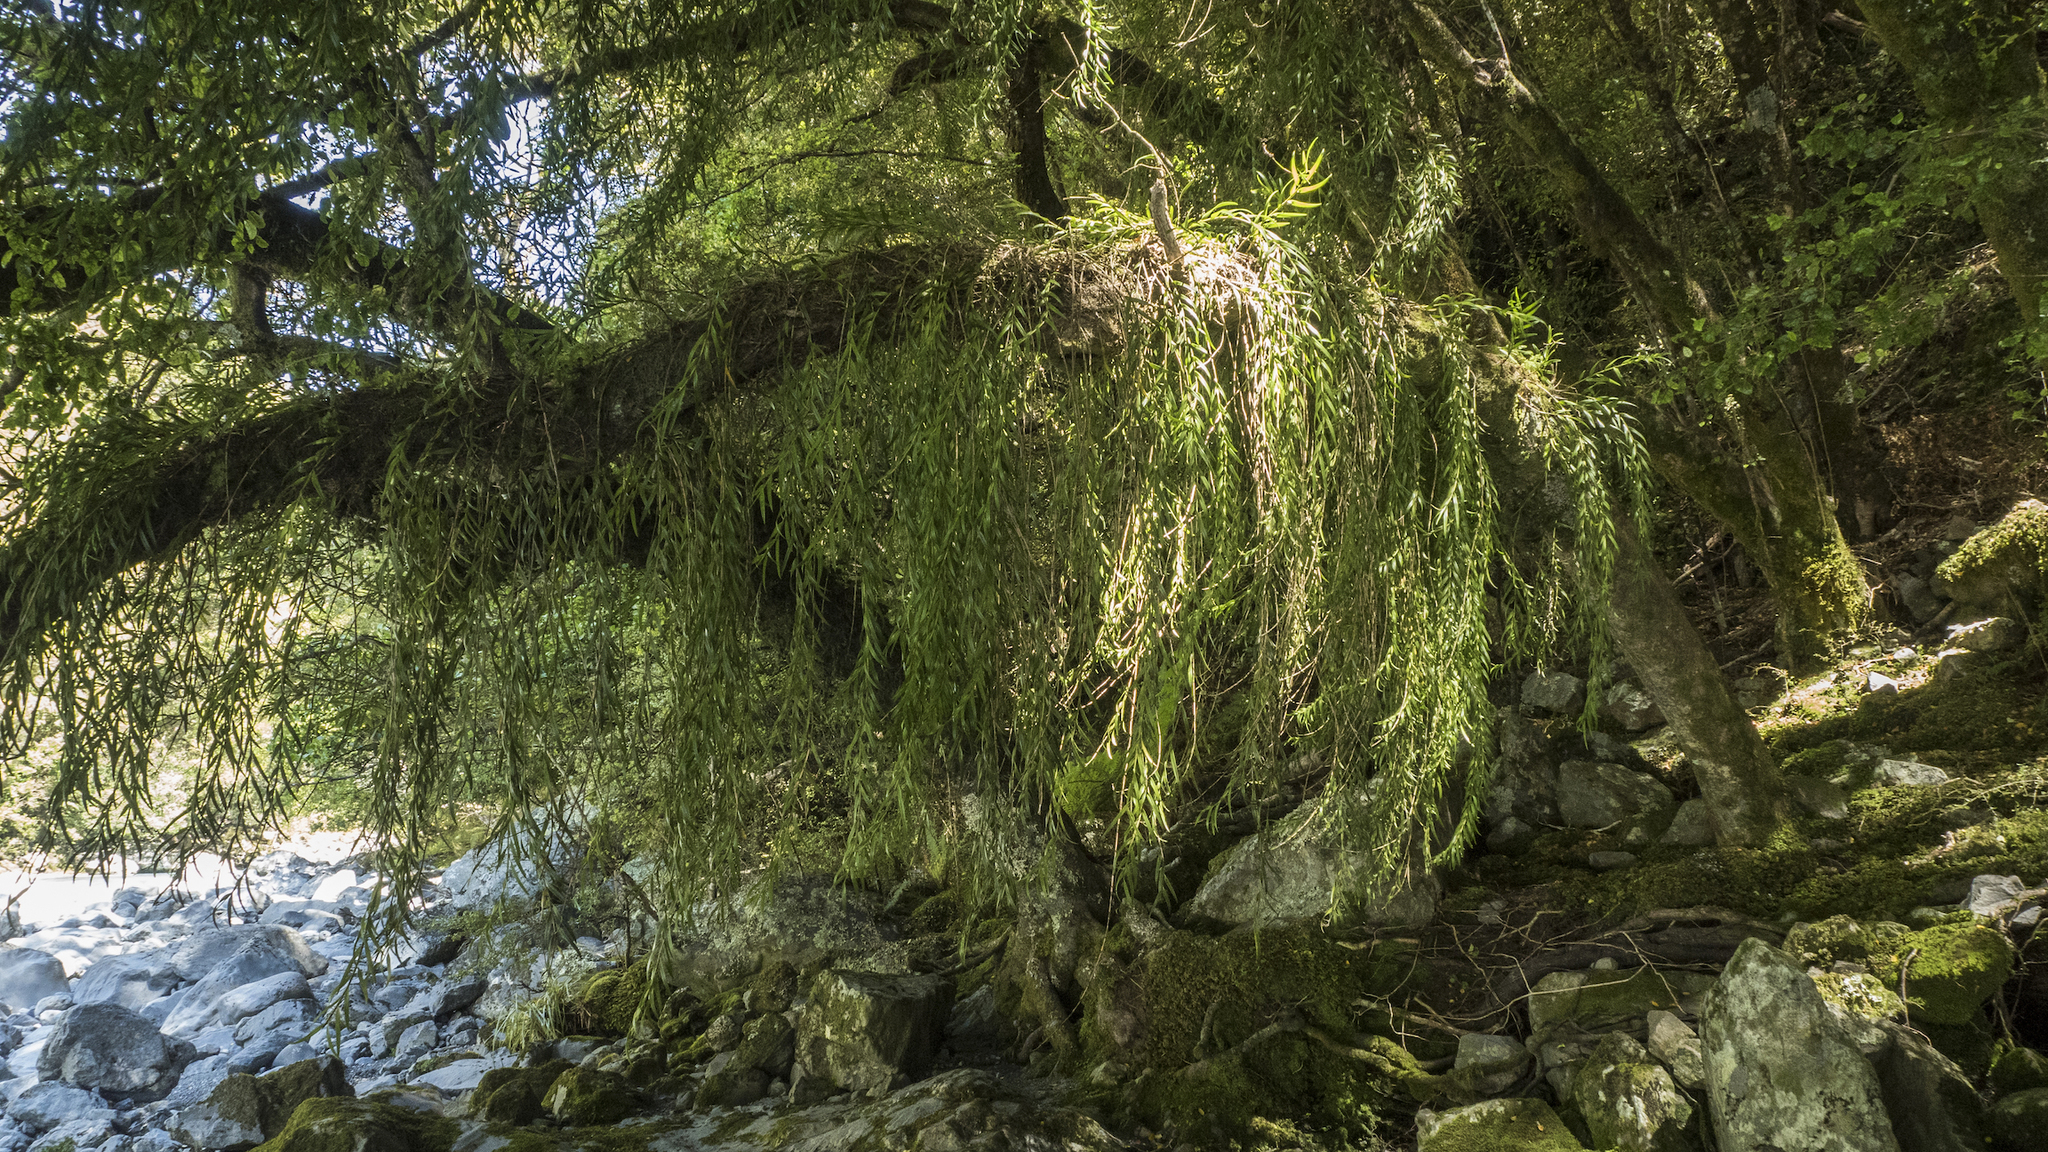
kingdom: Plantae
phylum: Tracheophyta
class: Liliopsida
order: Asparagales
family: Orchidaceae
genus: Earina
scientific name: Earina autumnalis
